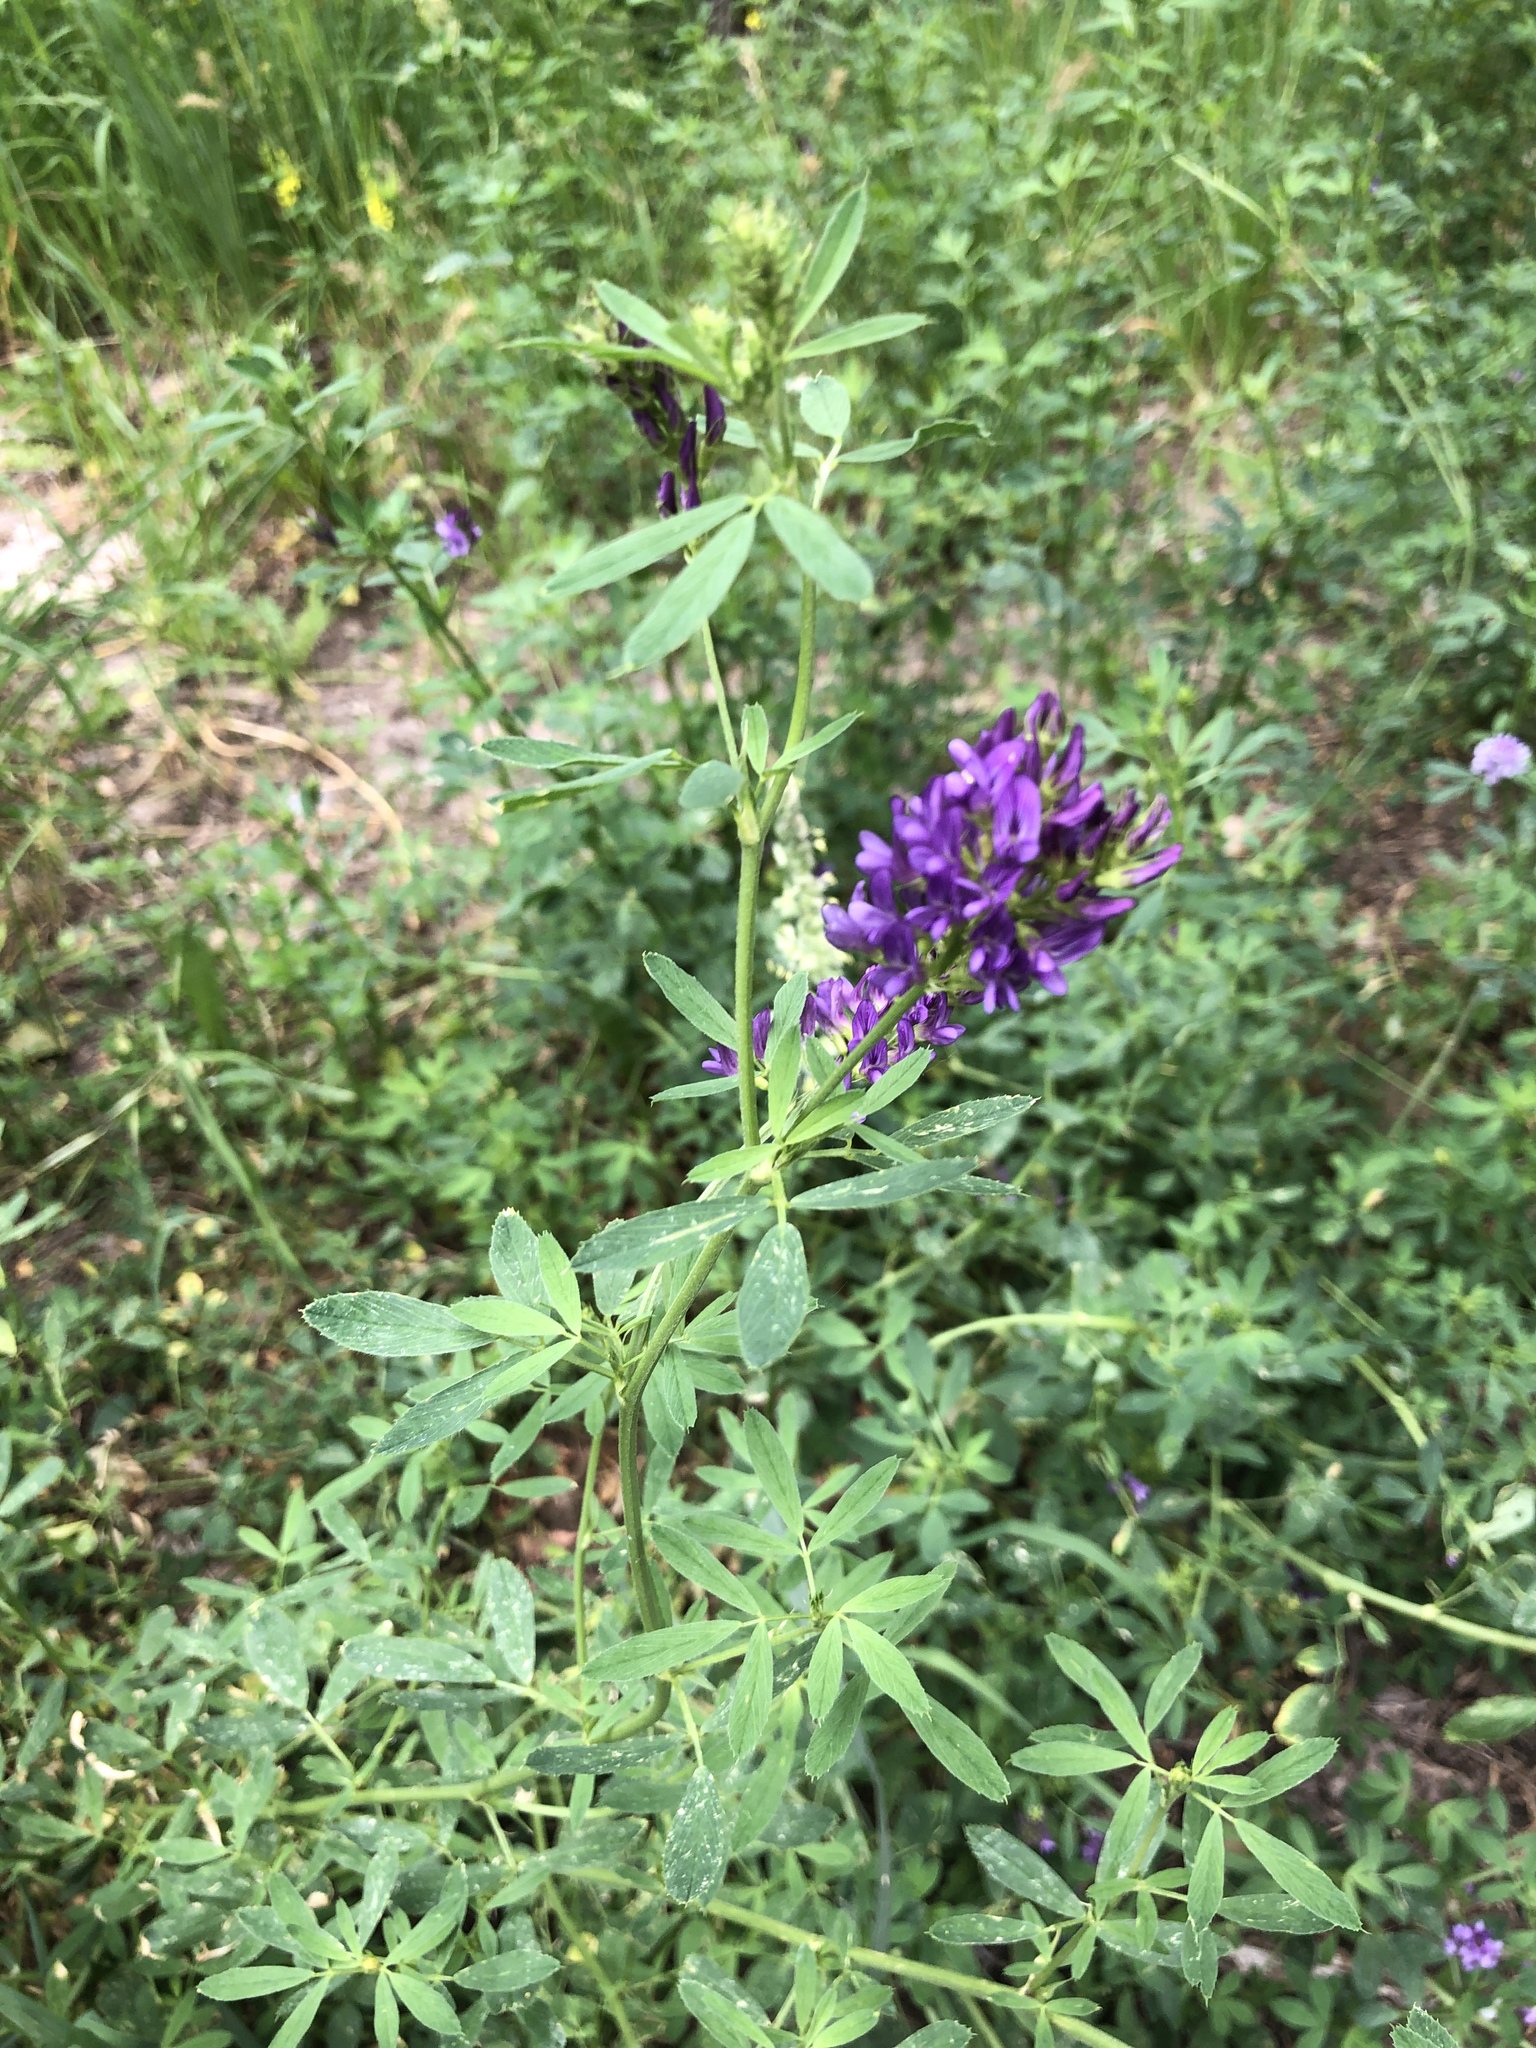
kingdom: Plantae
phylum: Tracheophyta
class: Magnoliopsida
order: Fabales
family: Fabaceae
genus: Medicago
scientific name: Medicago sativa
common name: Alfalfa
